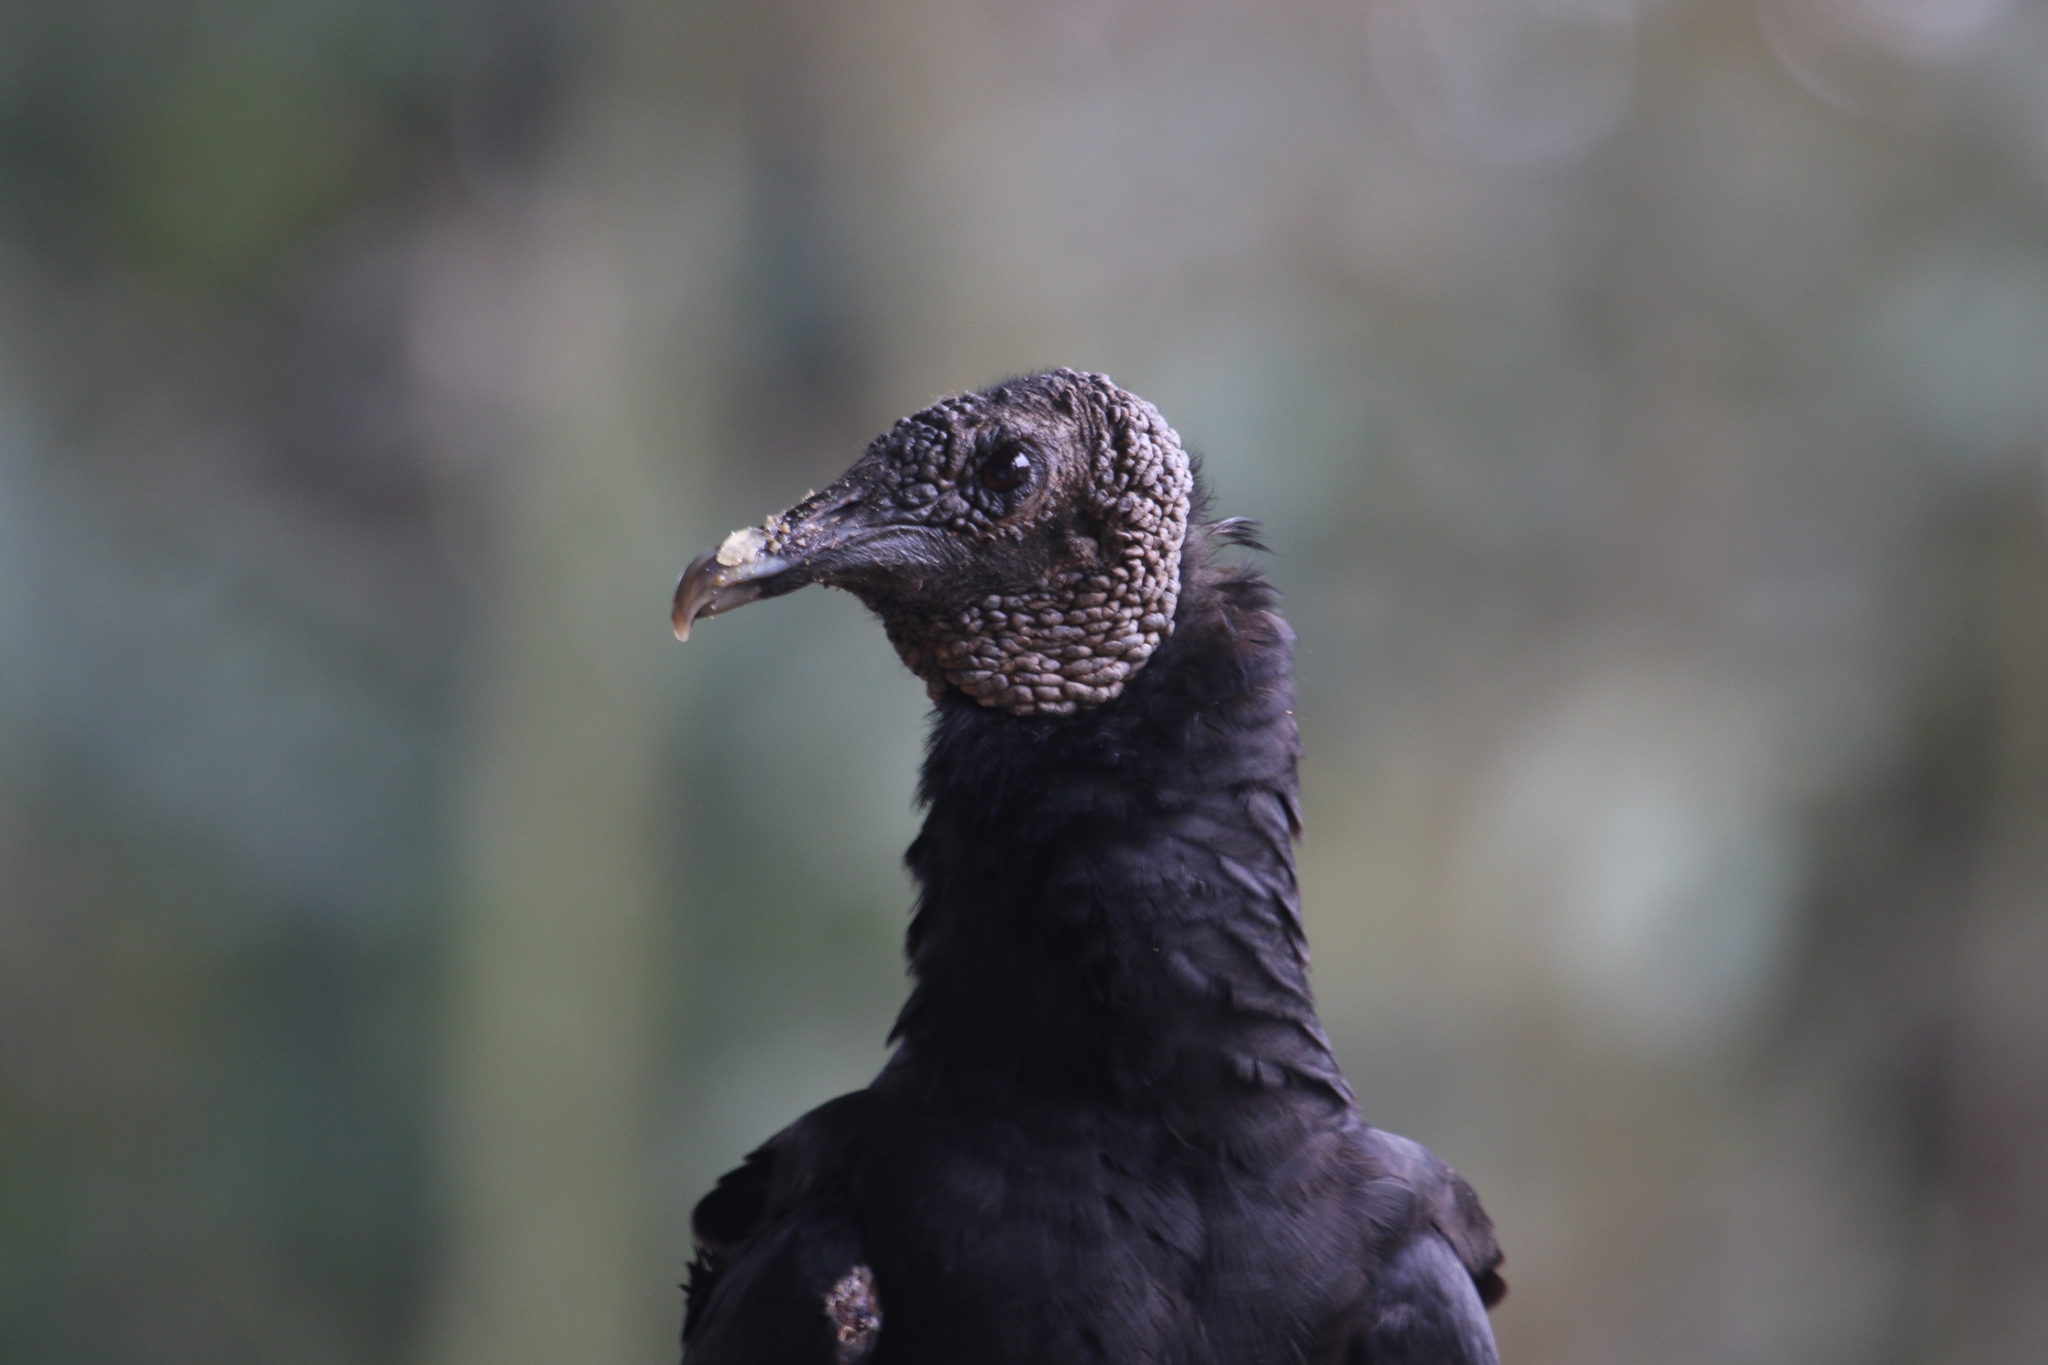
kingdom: Animalia
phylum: Chordata
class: Aves
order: Accipitriformes
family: Cathartidae
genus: Coragyps
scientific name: Coragyps atratus
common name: Black vulture
